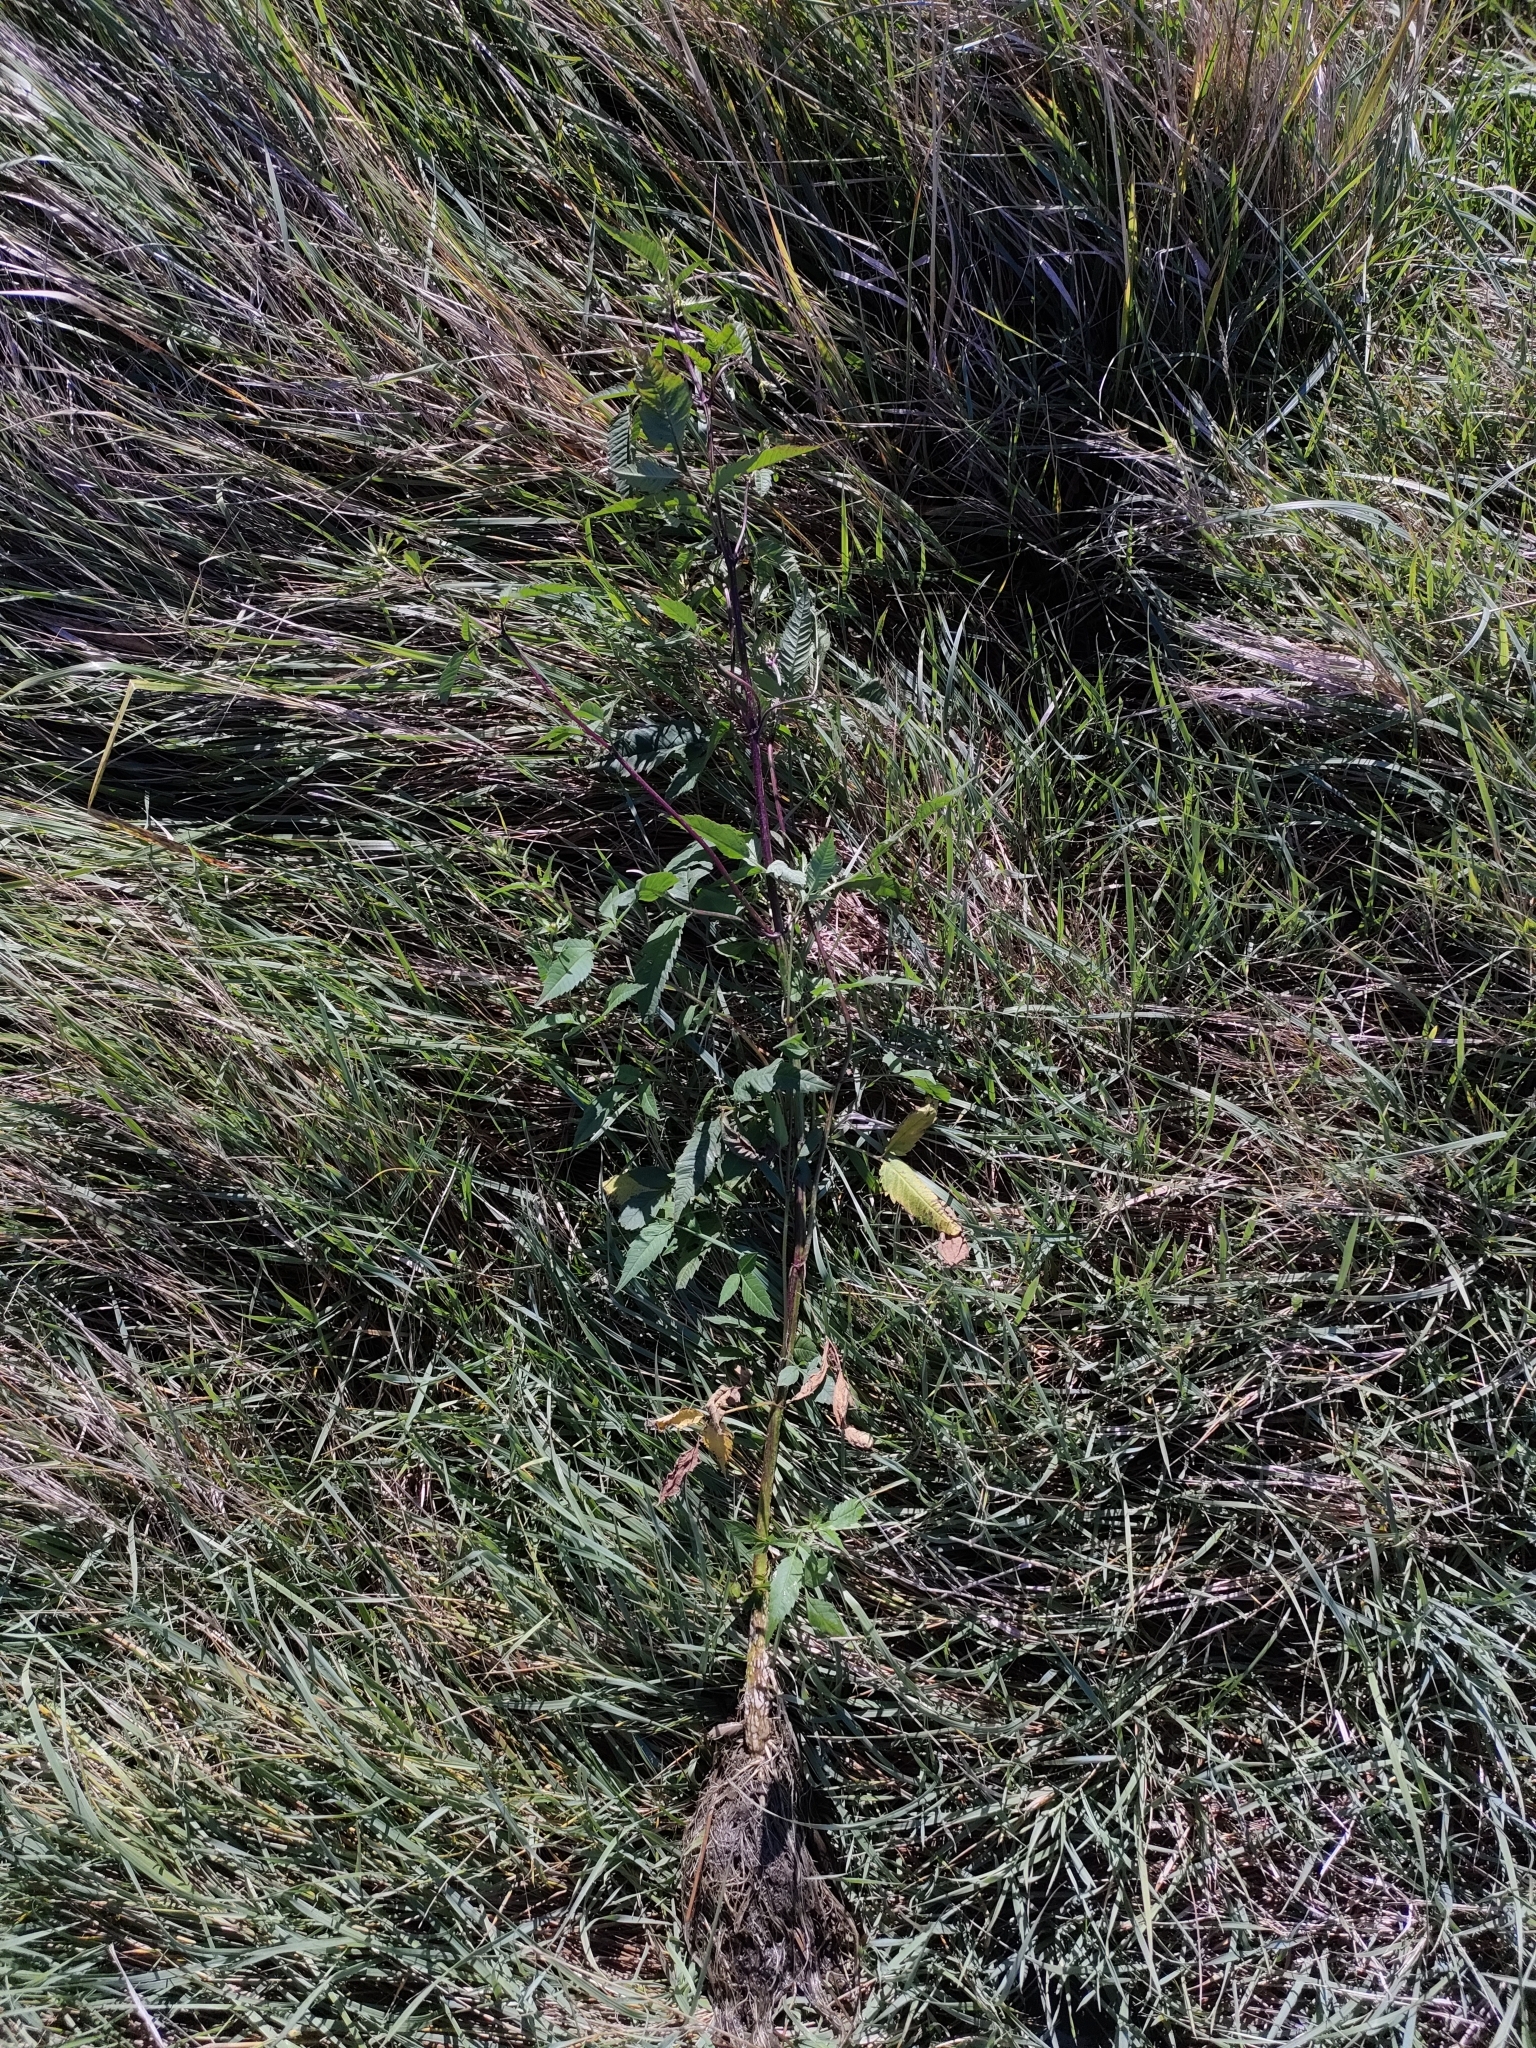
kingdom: Plantae
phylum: Tracheophyta
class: Magnoliopsida
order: Asterales
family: Asteraceae
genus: Bidens
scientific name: Bidens frondosa
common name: Beggarticks
